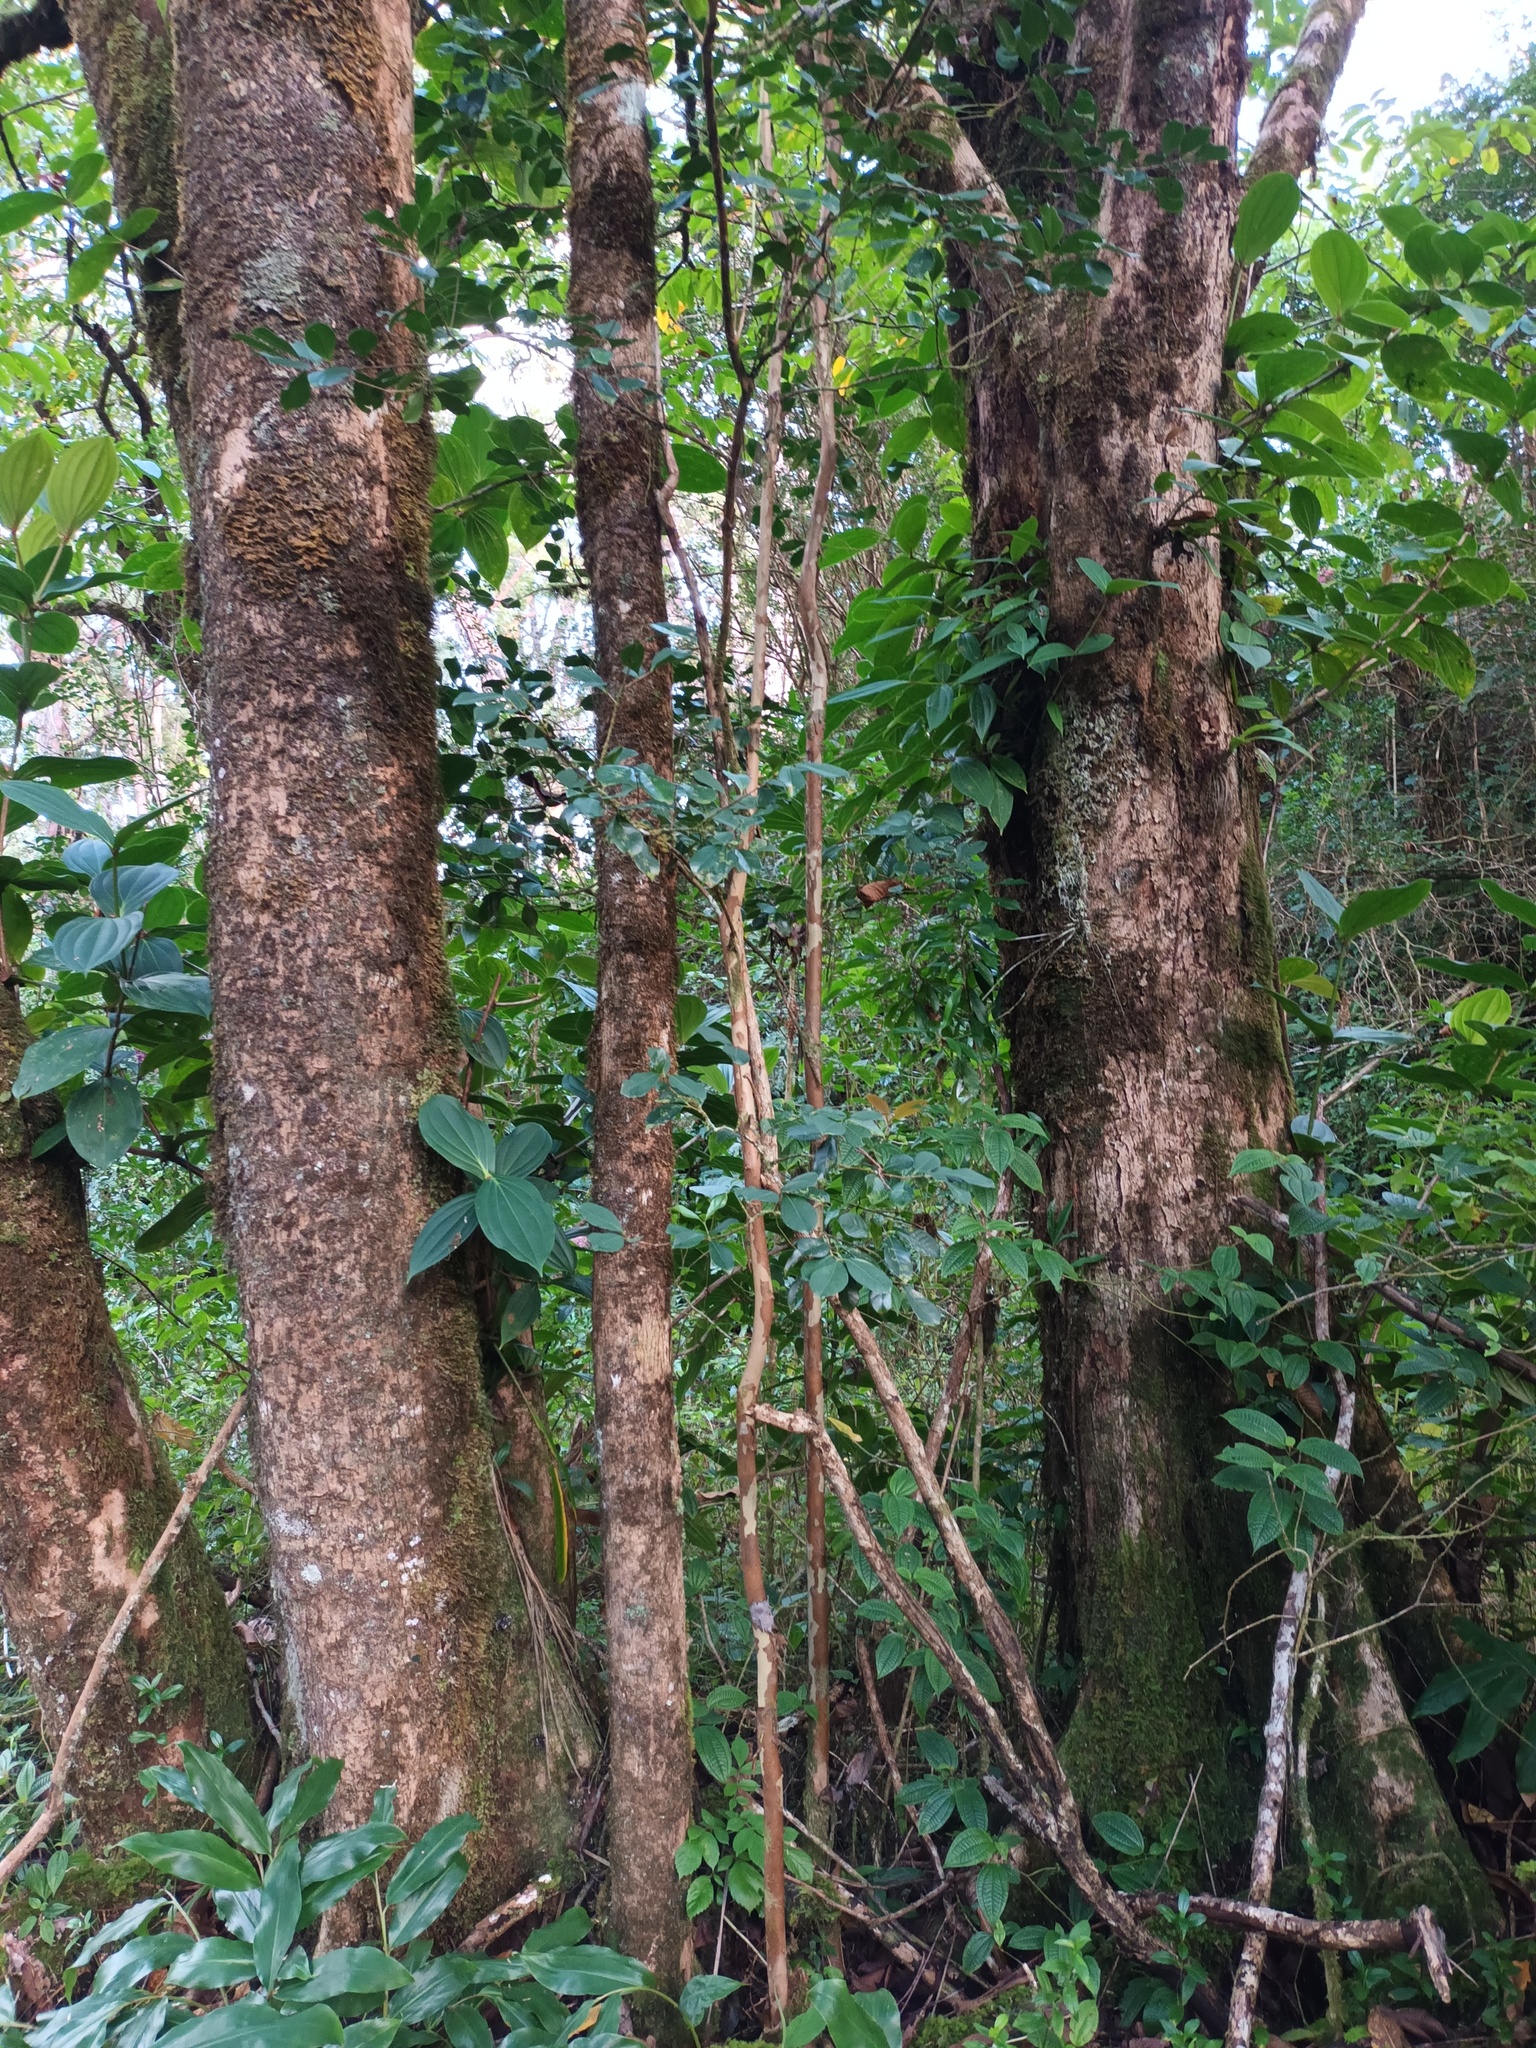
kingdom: Plantae
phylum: Tracheophyta
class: Magnoliopsida
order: Myrtales
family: Myrtaceae
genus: Psidium
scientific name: Psidium cattleianum
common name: Strawberry guava
